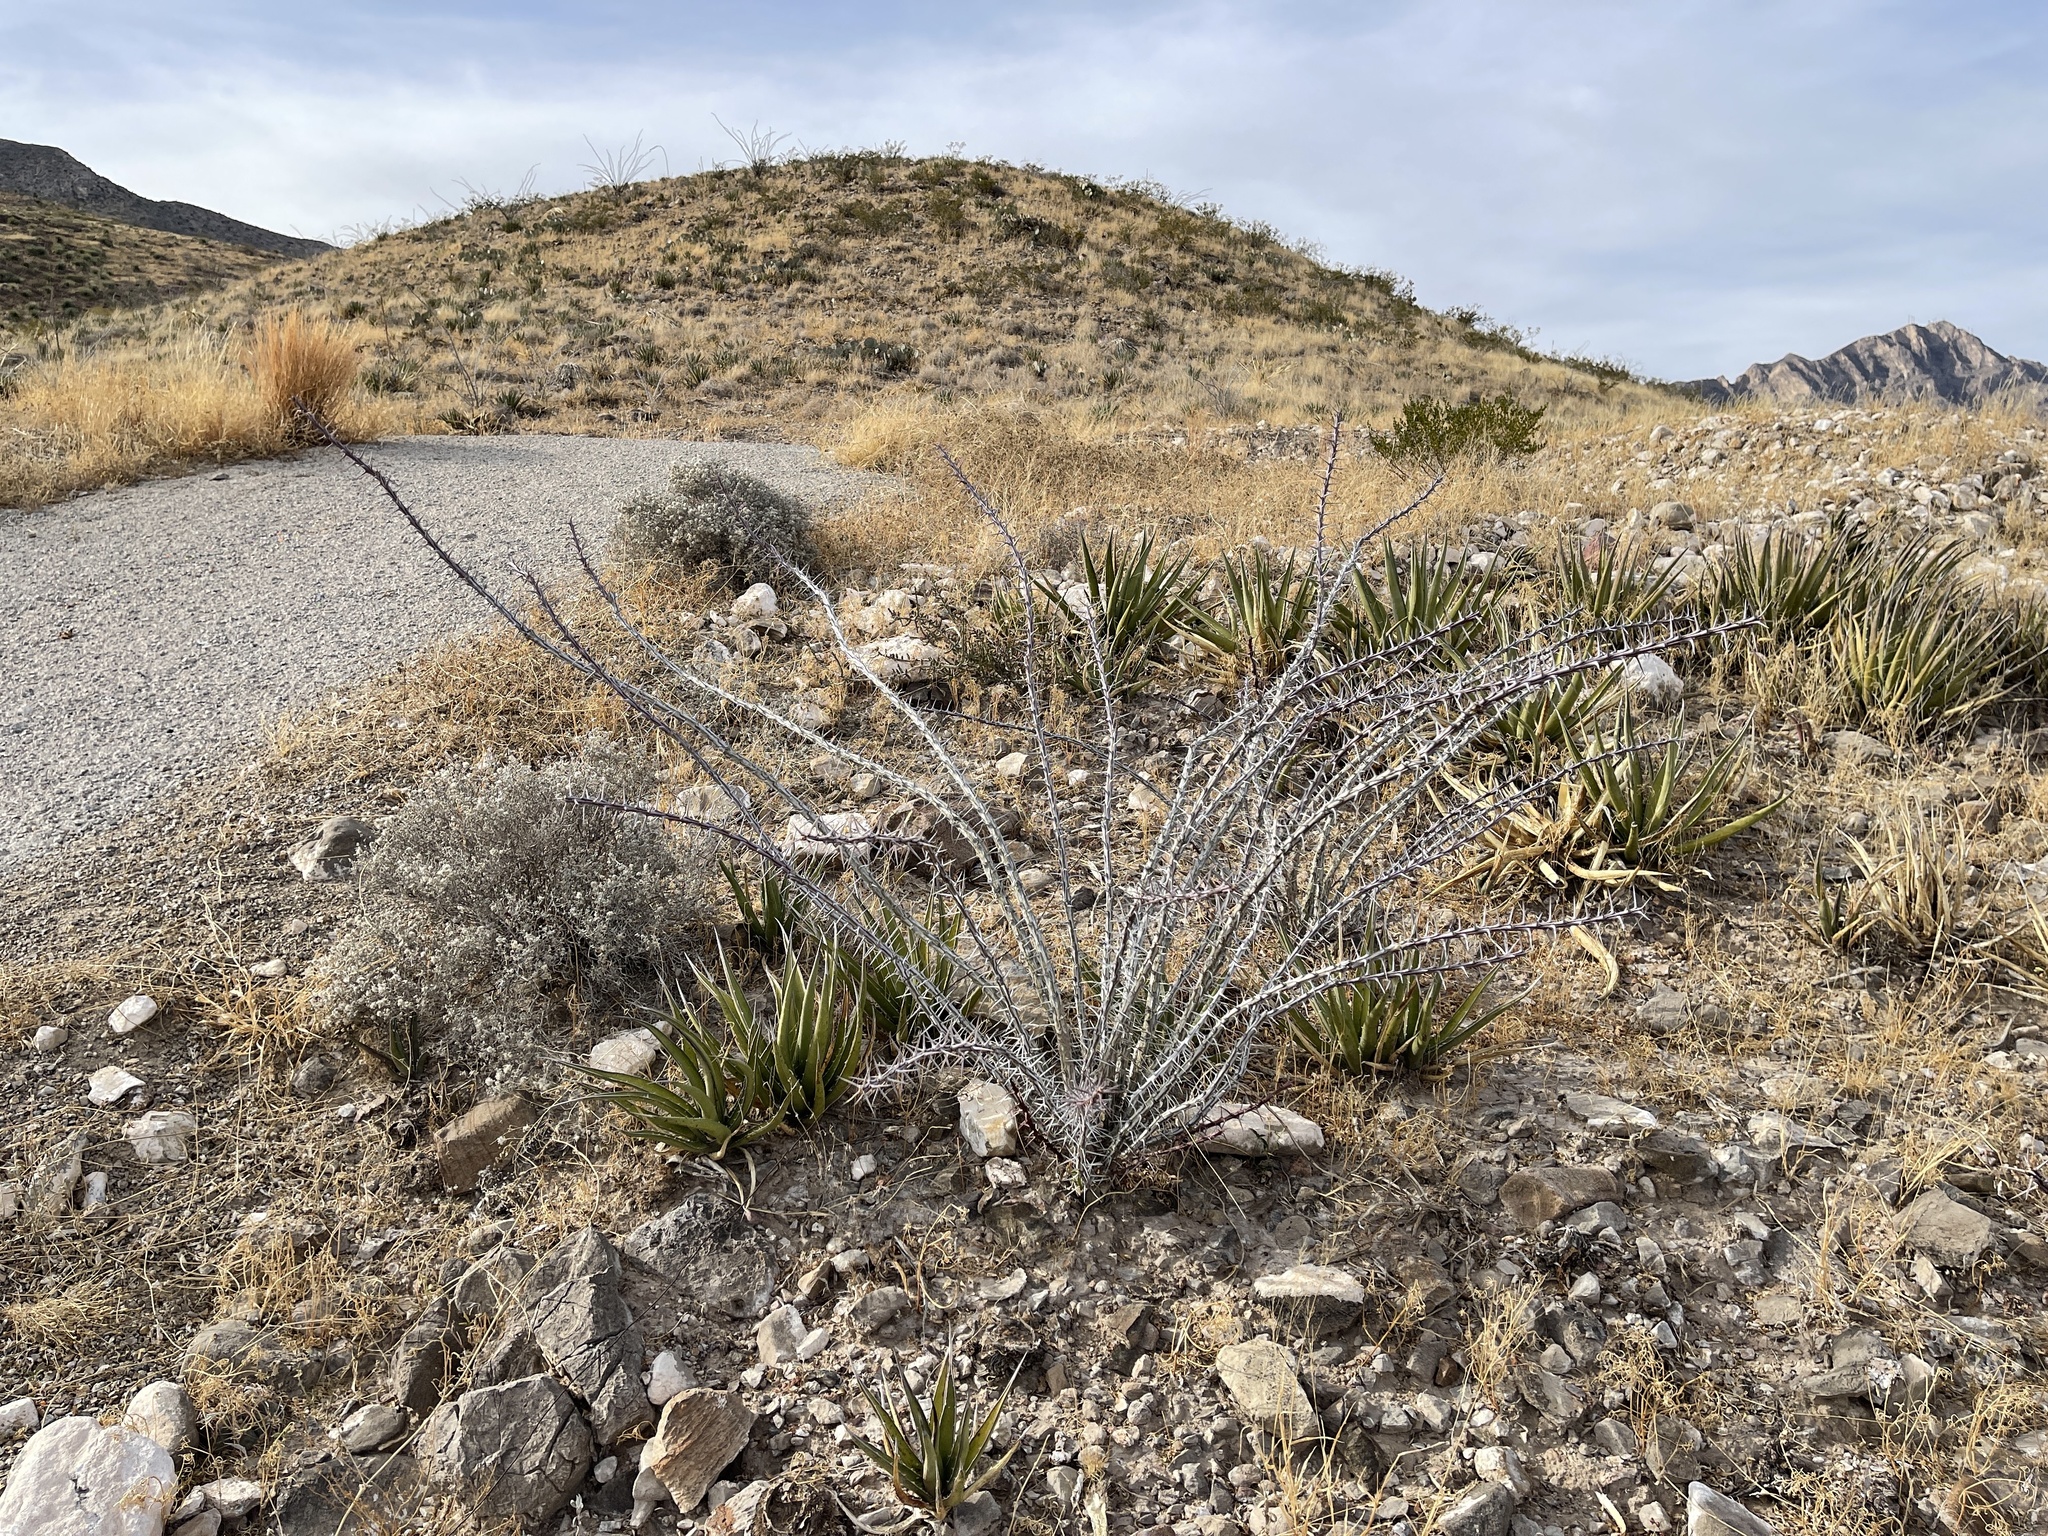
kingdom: Plantae
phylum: Tracheophyta
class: Magnoliopsida
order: Ericales
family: Fouquieriaceae
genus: Fouquieria
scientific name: Fouquieria splendens
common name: Vine-cactus
